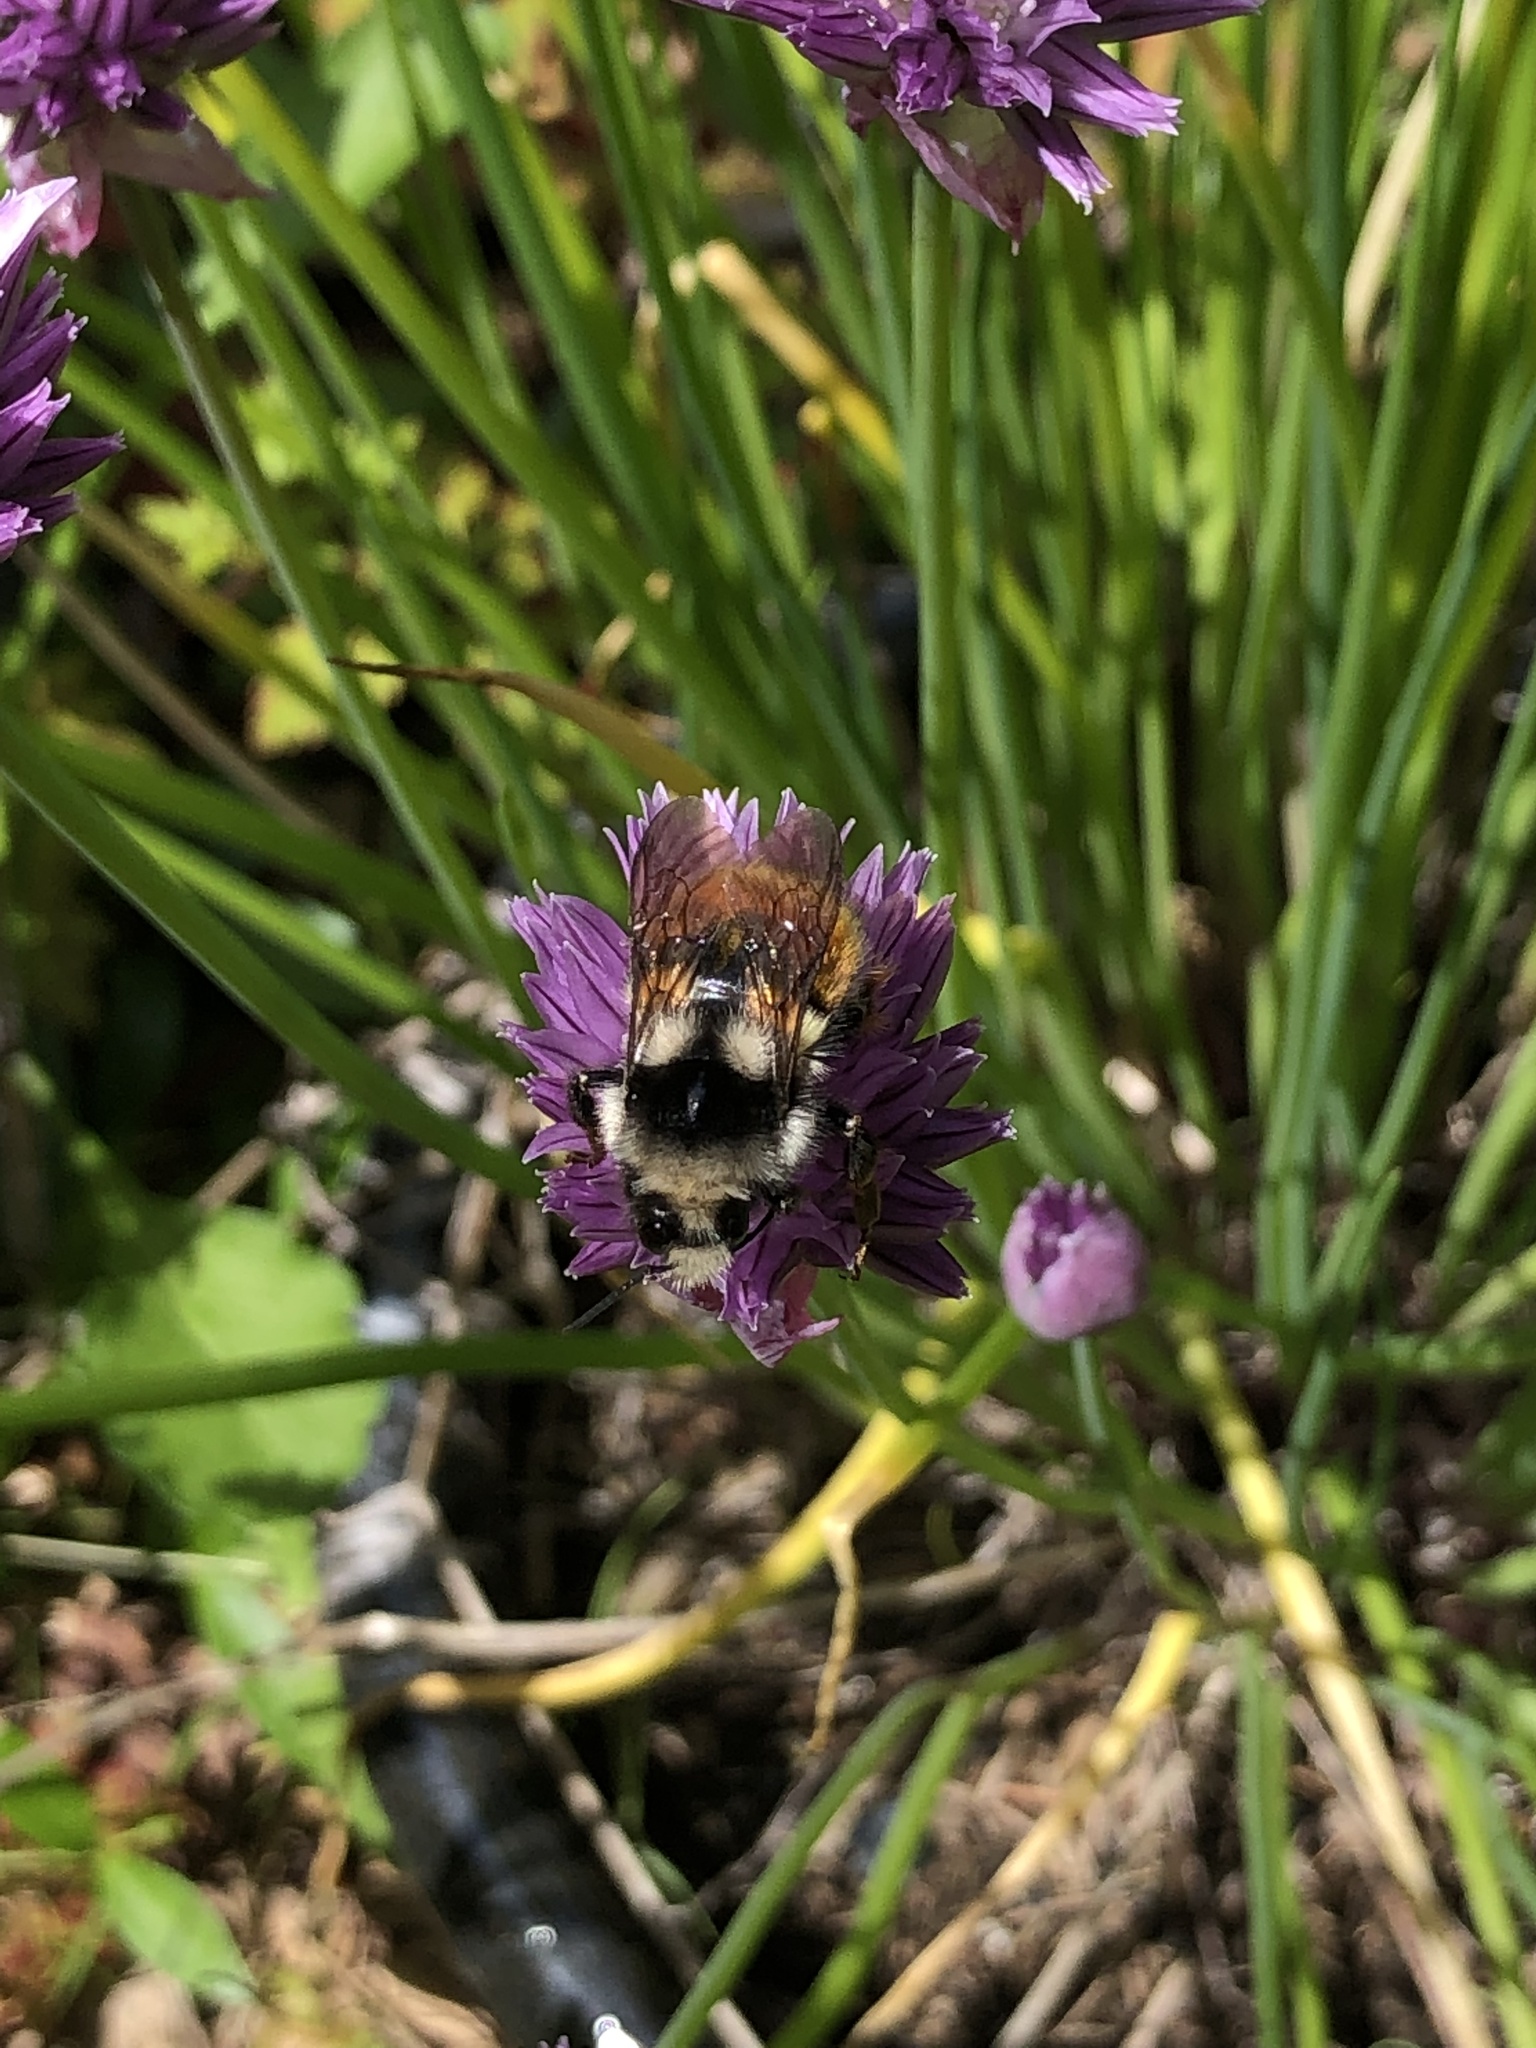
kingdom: Animalia
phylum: Arthropoda
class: Insecta
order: Hymenoptera
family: Apidae
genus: Bombus
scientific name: Bombus vancouverensis
